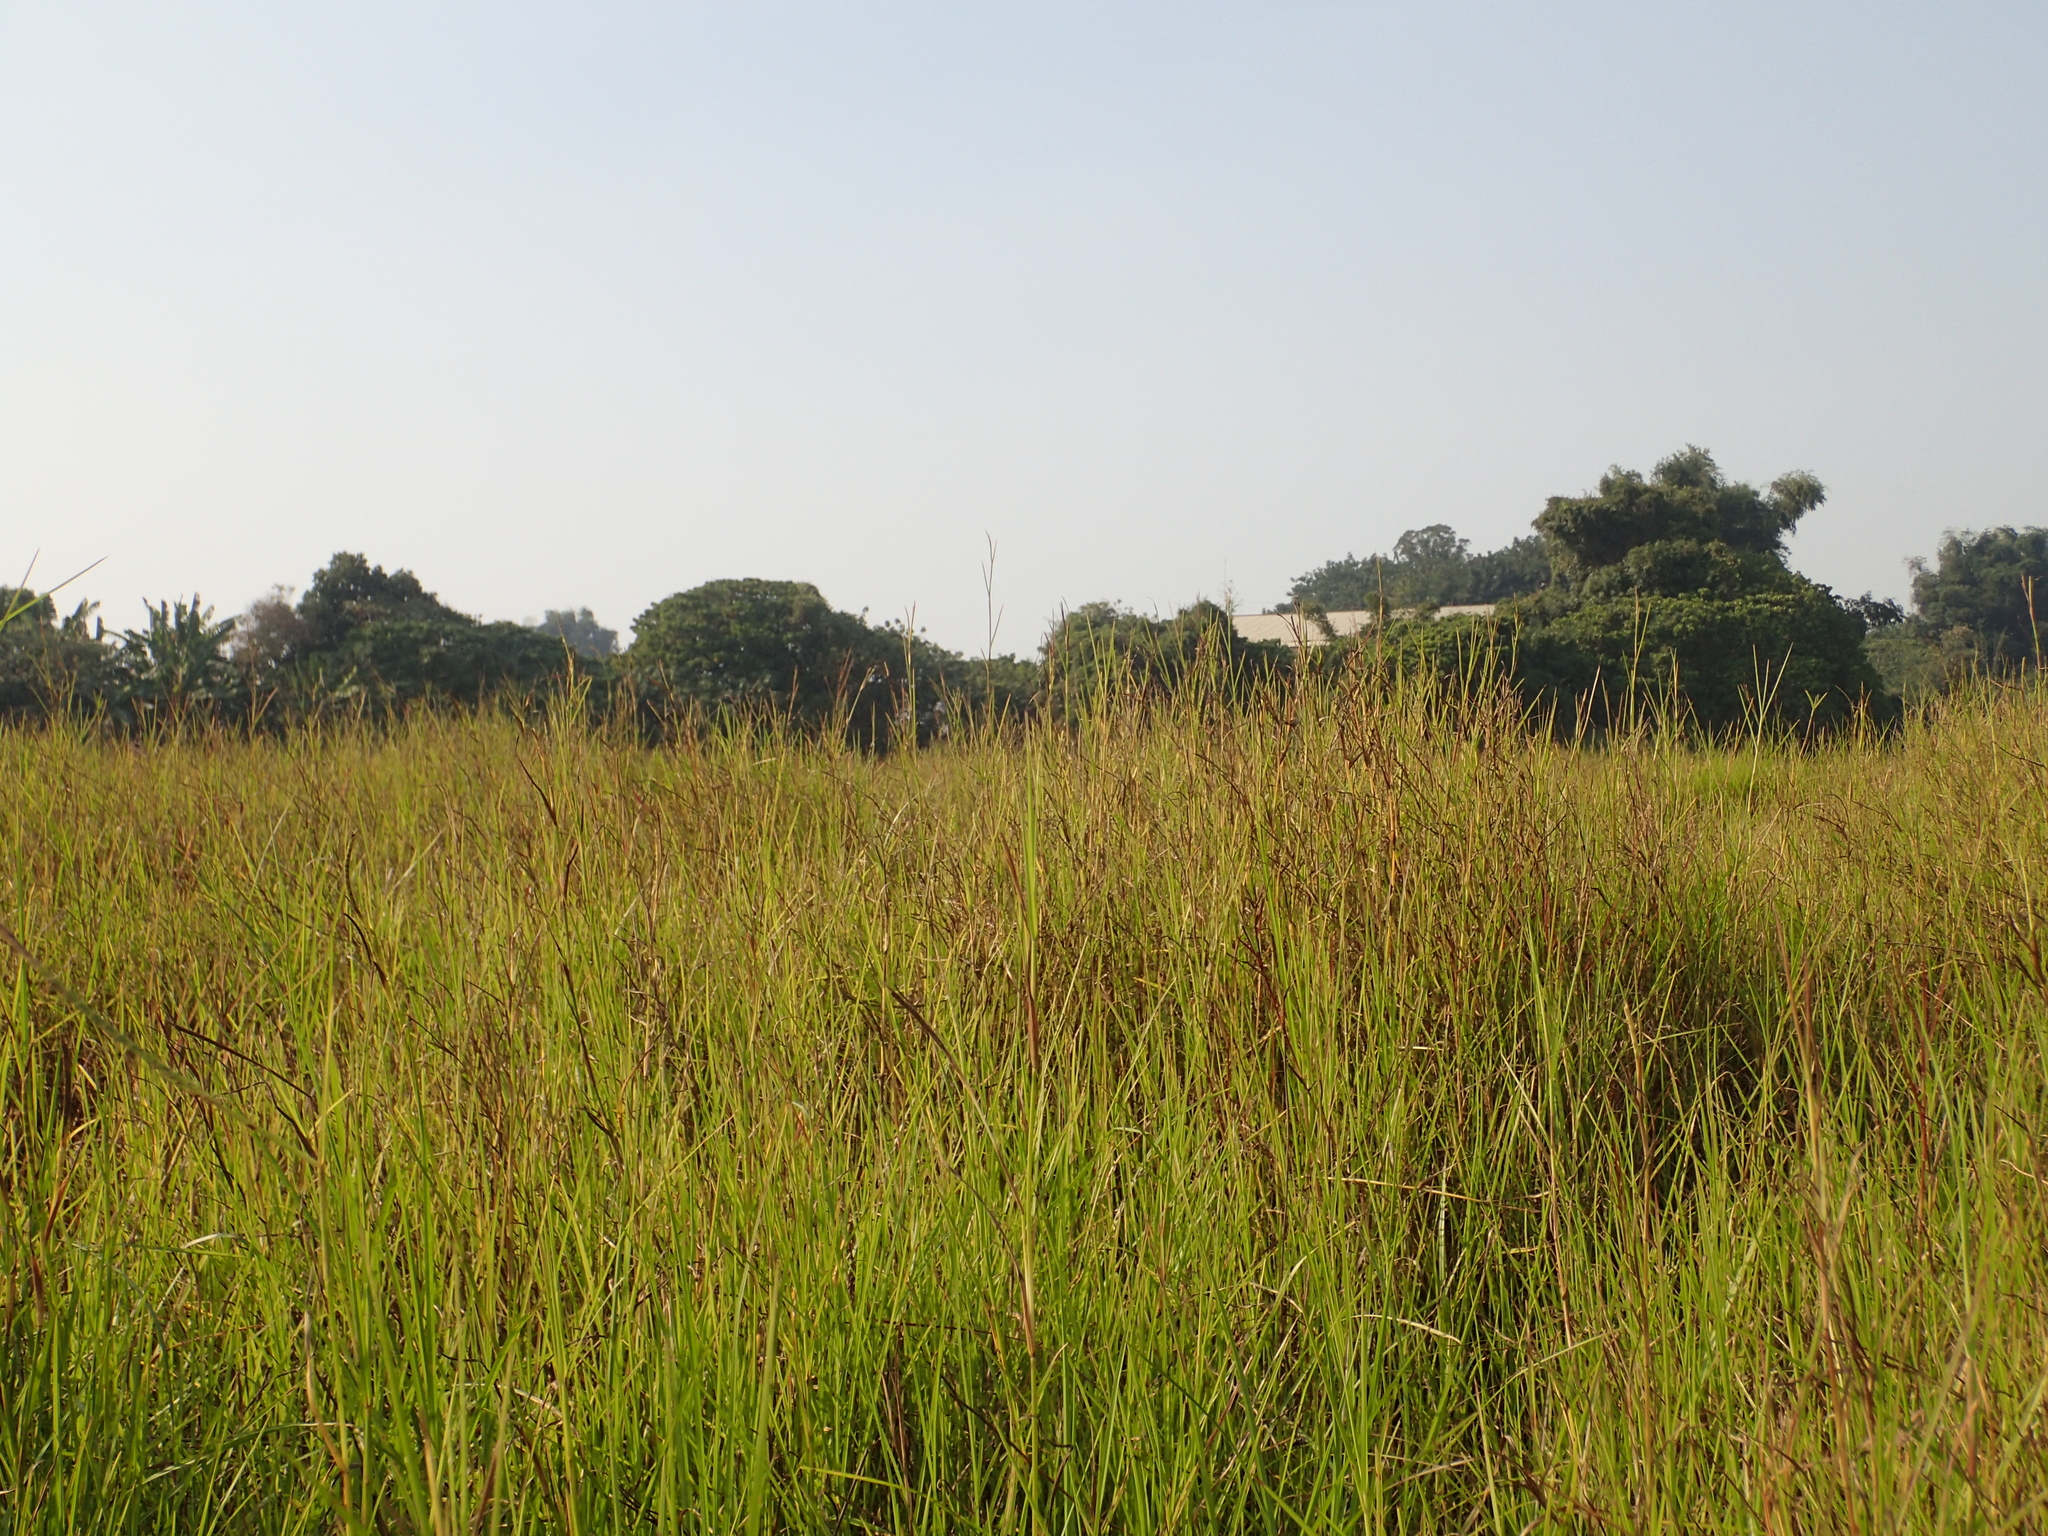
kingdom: Plantae
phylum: Tracheophyta
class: Liliopsida
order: Poales
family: Poaceae
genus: Hemarthria
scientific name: Hemarthria compressa
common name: Whip grass
